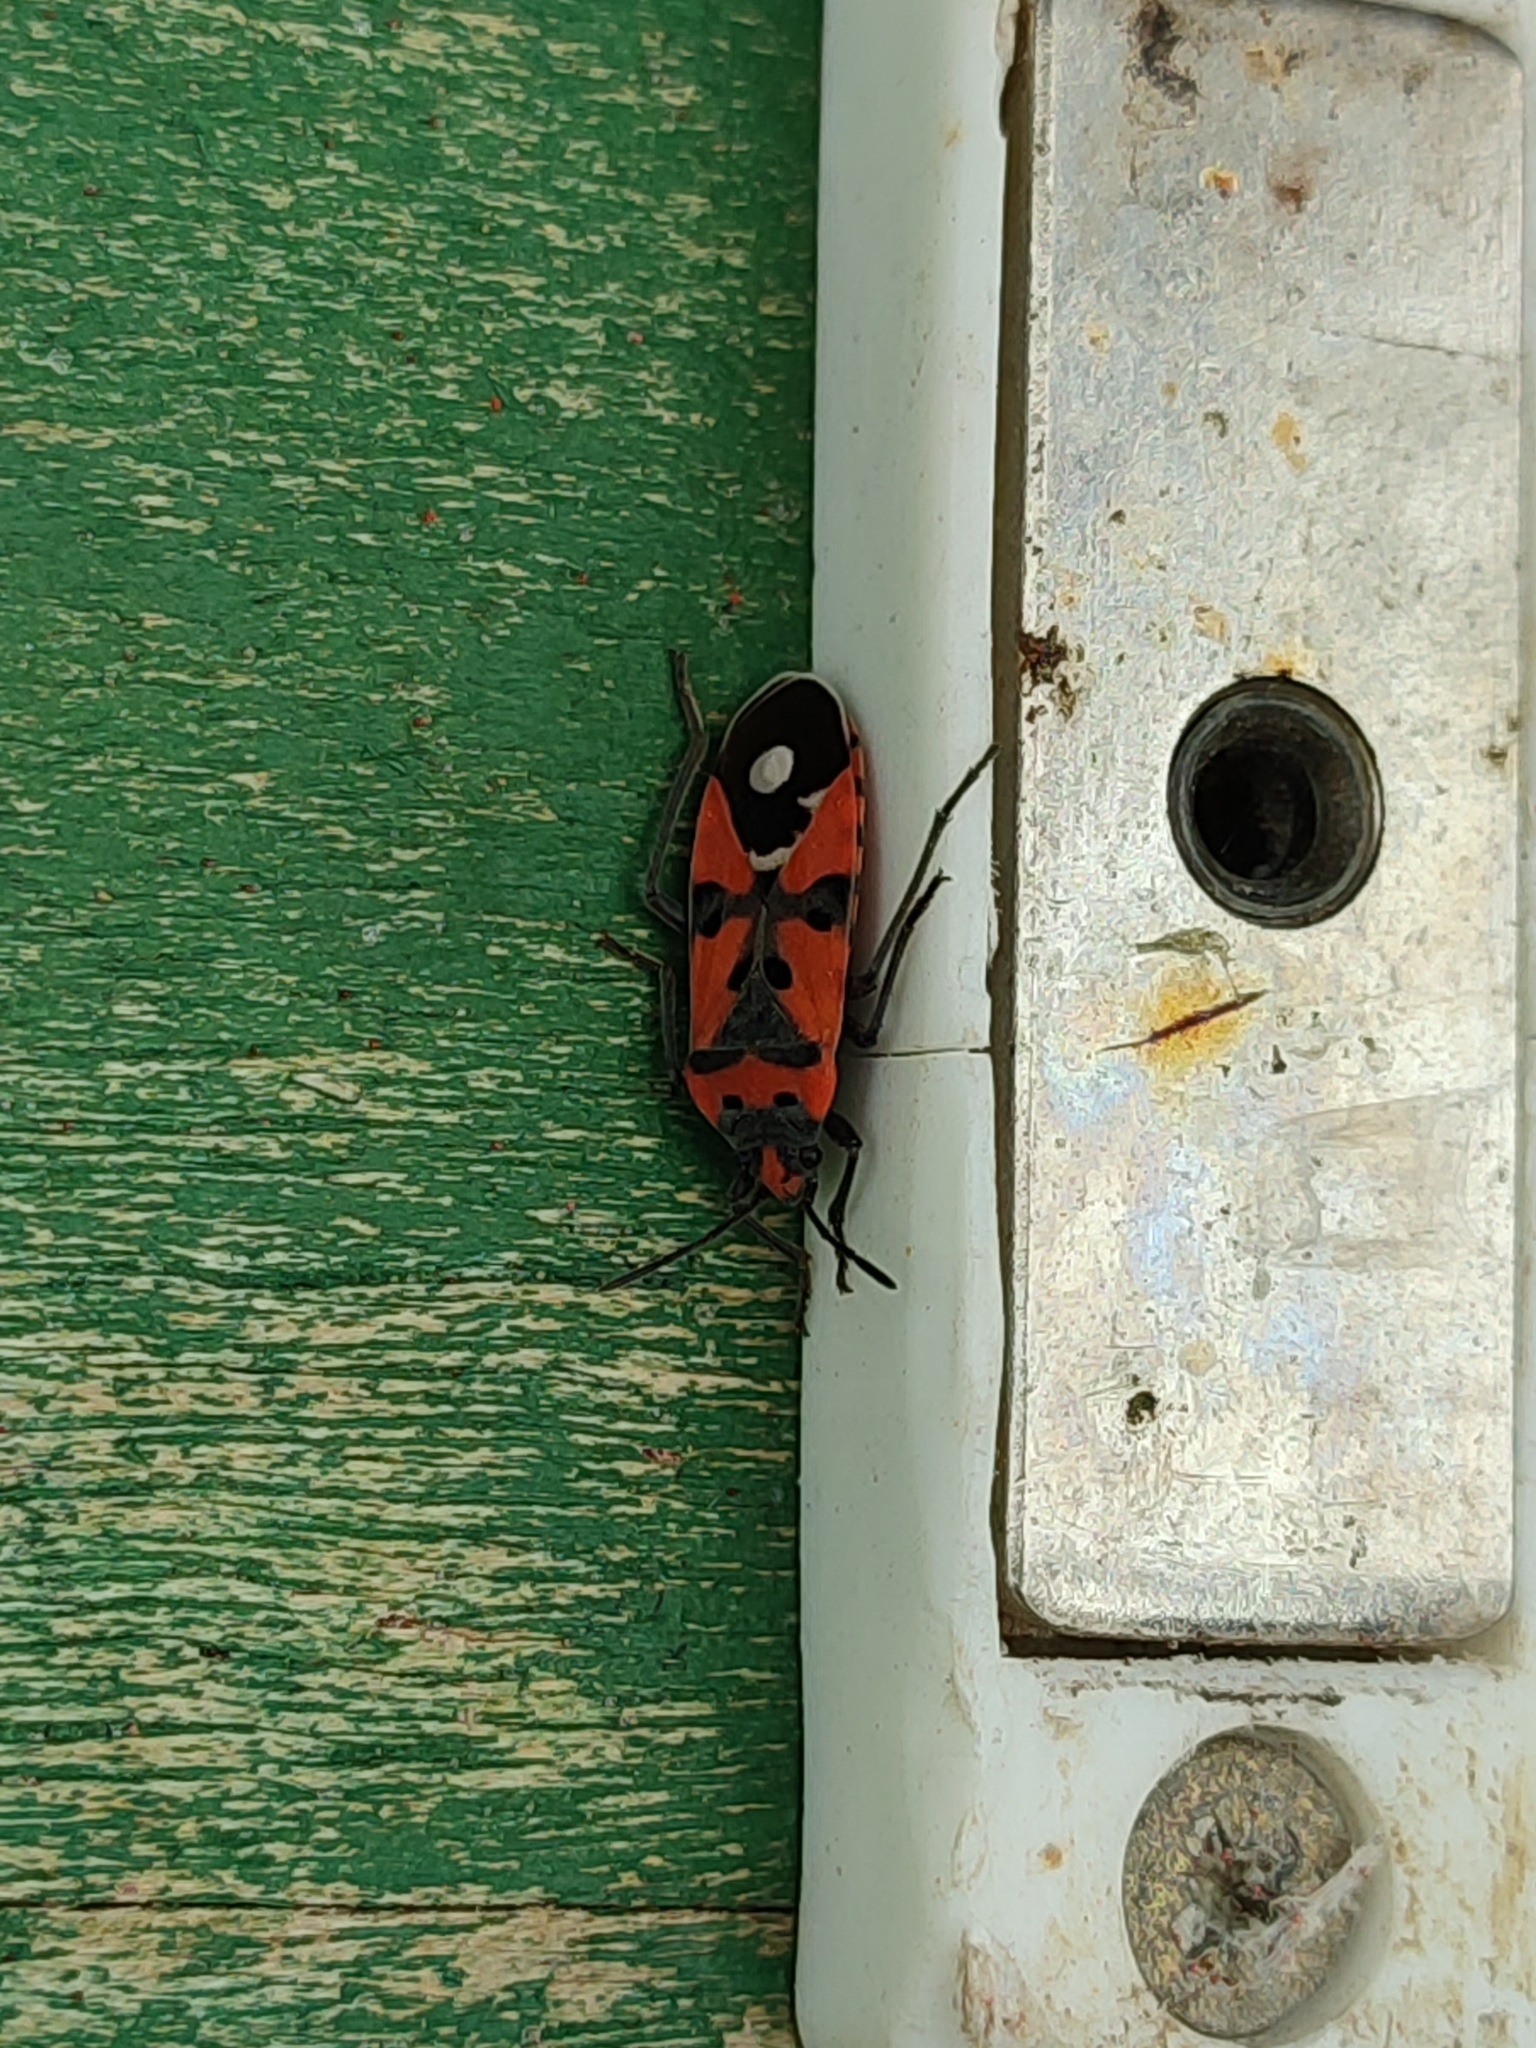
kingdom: Animalia
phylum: Arthropoda
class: Insecta
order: Hemiptera
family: Lygaeidae
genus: Lygaeus
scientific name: Lygaeus
